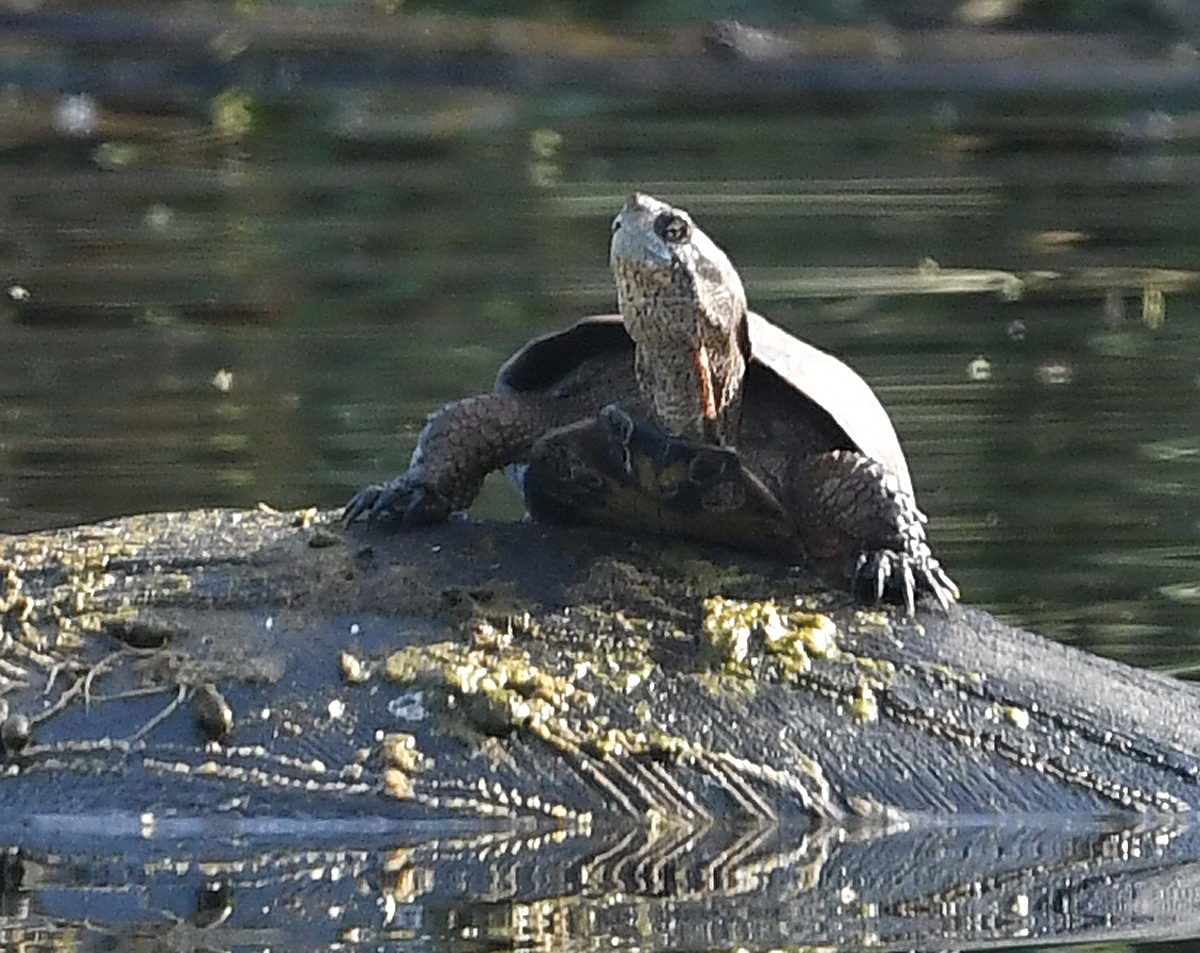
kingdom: Animalia
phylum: Chordata
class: Testudines
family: Emydidae
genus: Actinemys
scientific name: Actinemys marmorata
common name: Western pond turtle
